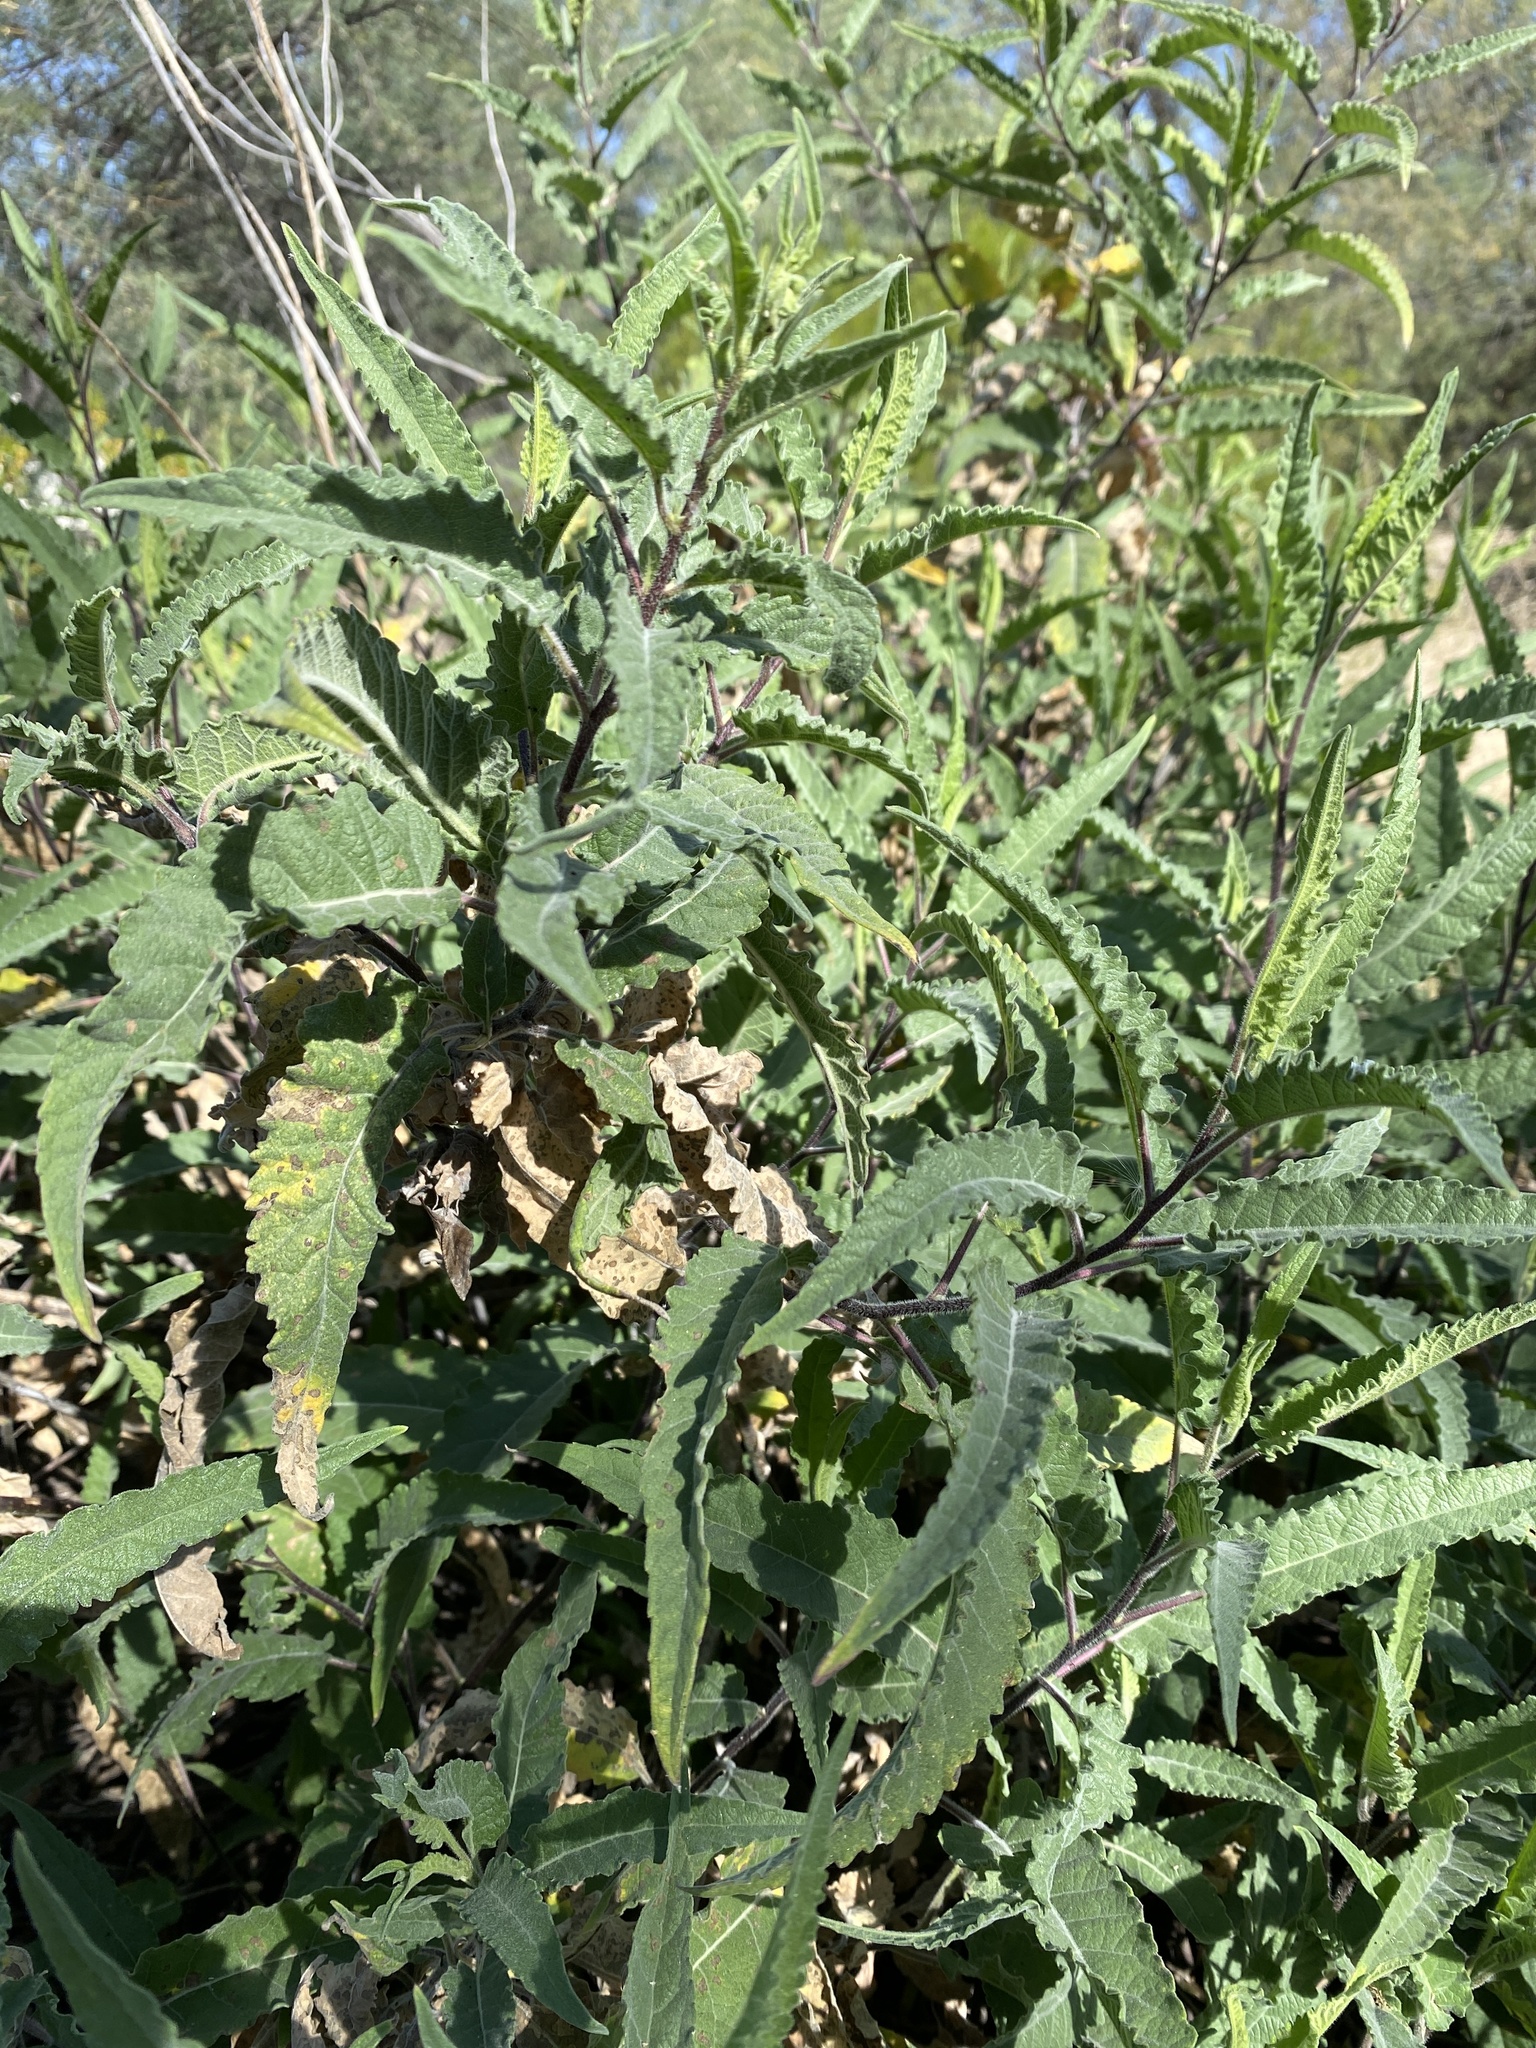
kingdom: Plantae
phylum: Tracheophyta
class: Magnoliopsida
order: Asterales
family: Asteraceae
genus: Ambrosia
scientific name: Ambrosia ambrosioides
